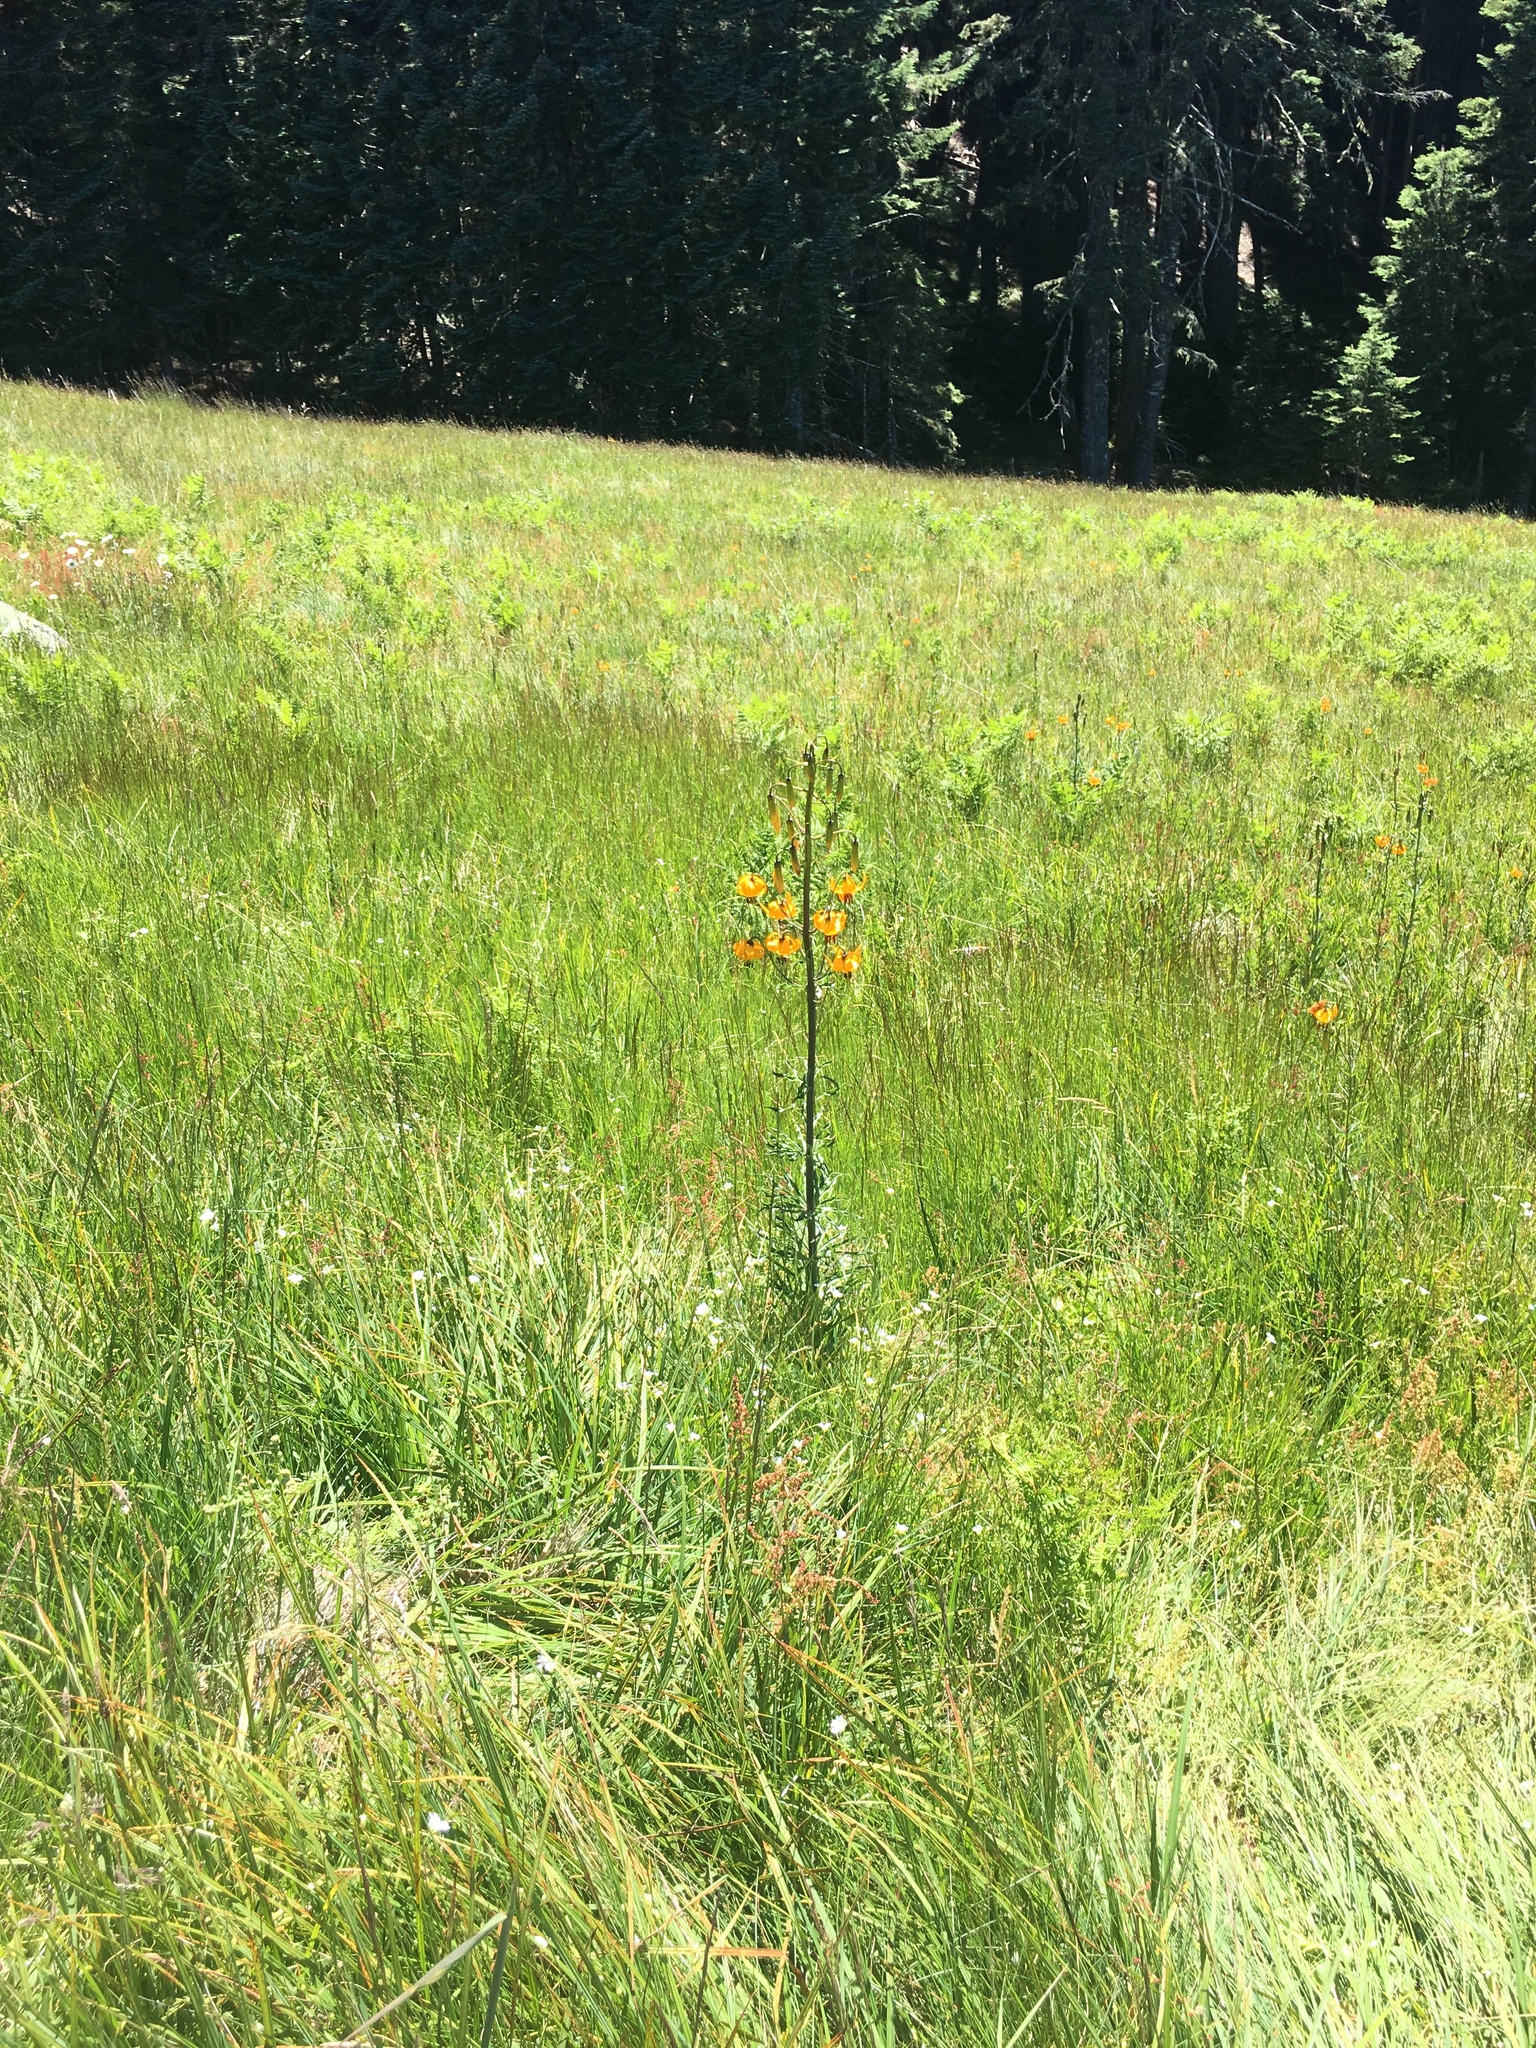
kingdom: Plantae
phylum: Tracheophyta
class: Liliopsida
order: Liliales
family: Liliaceae
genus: Lilium
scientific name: Lilium columbianum
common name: Columbia lily
